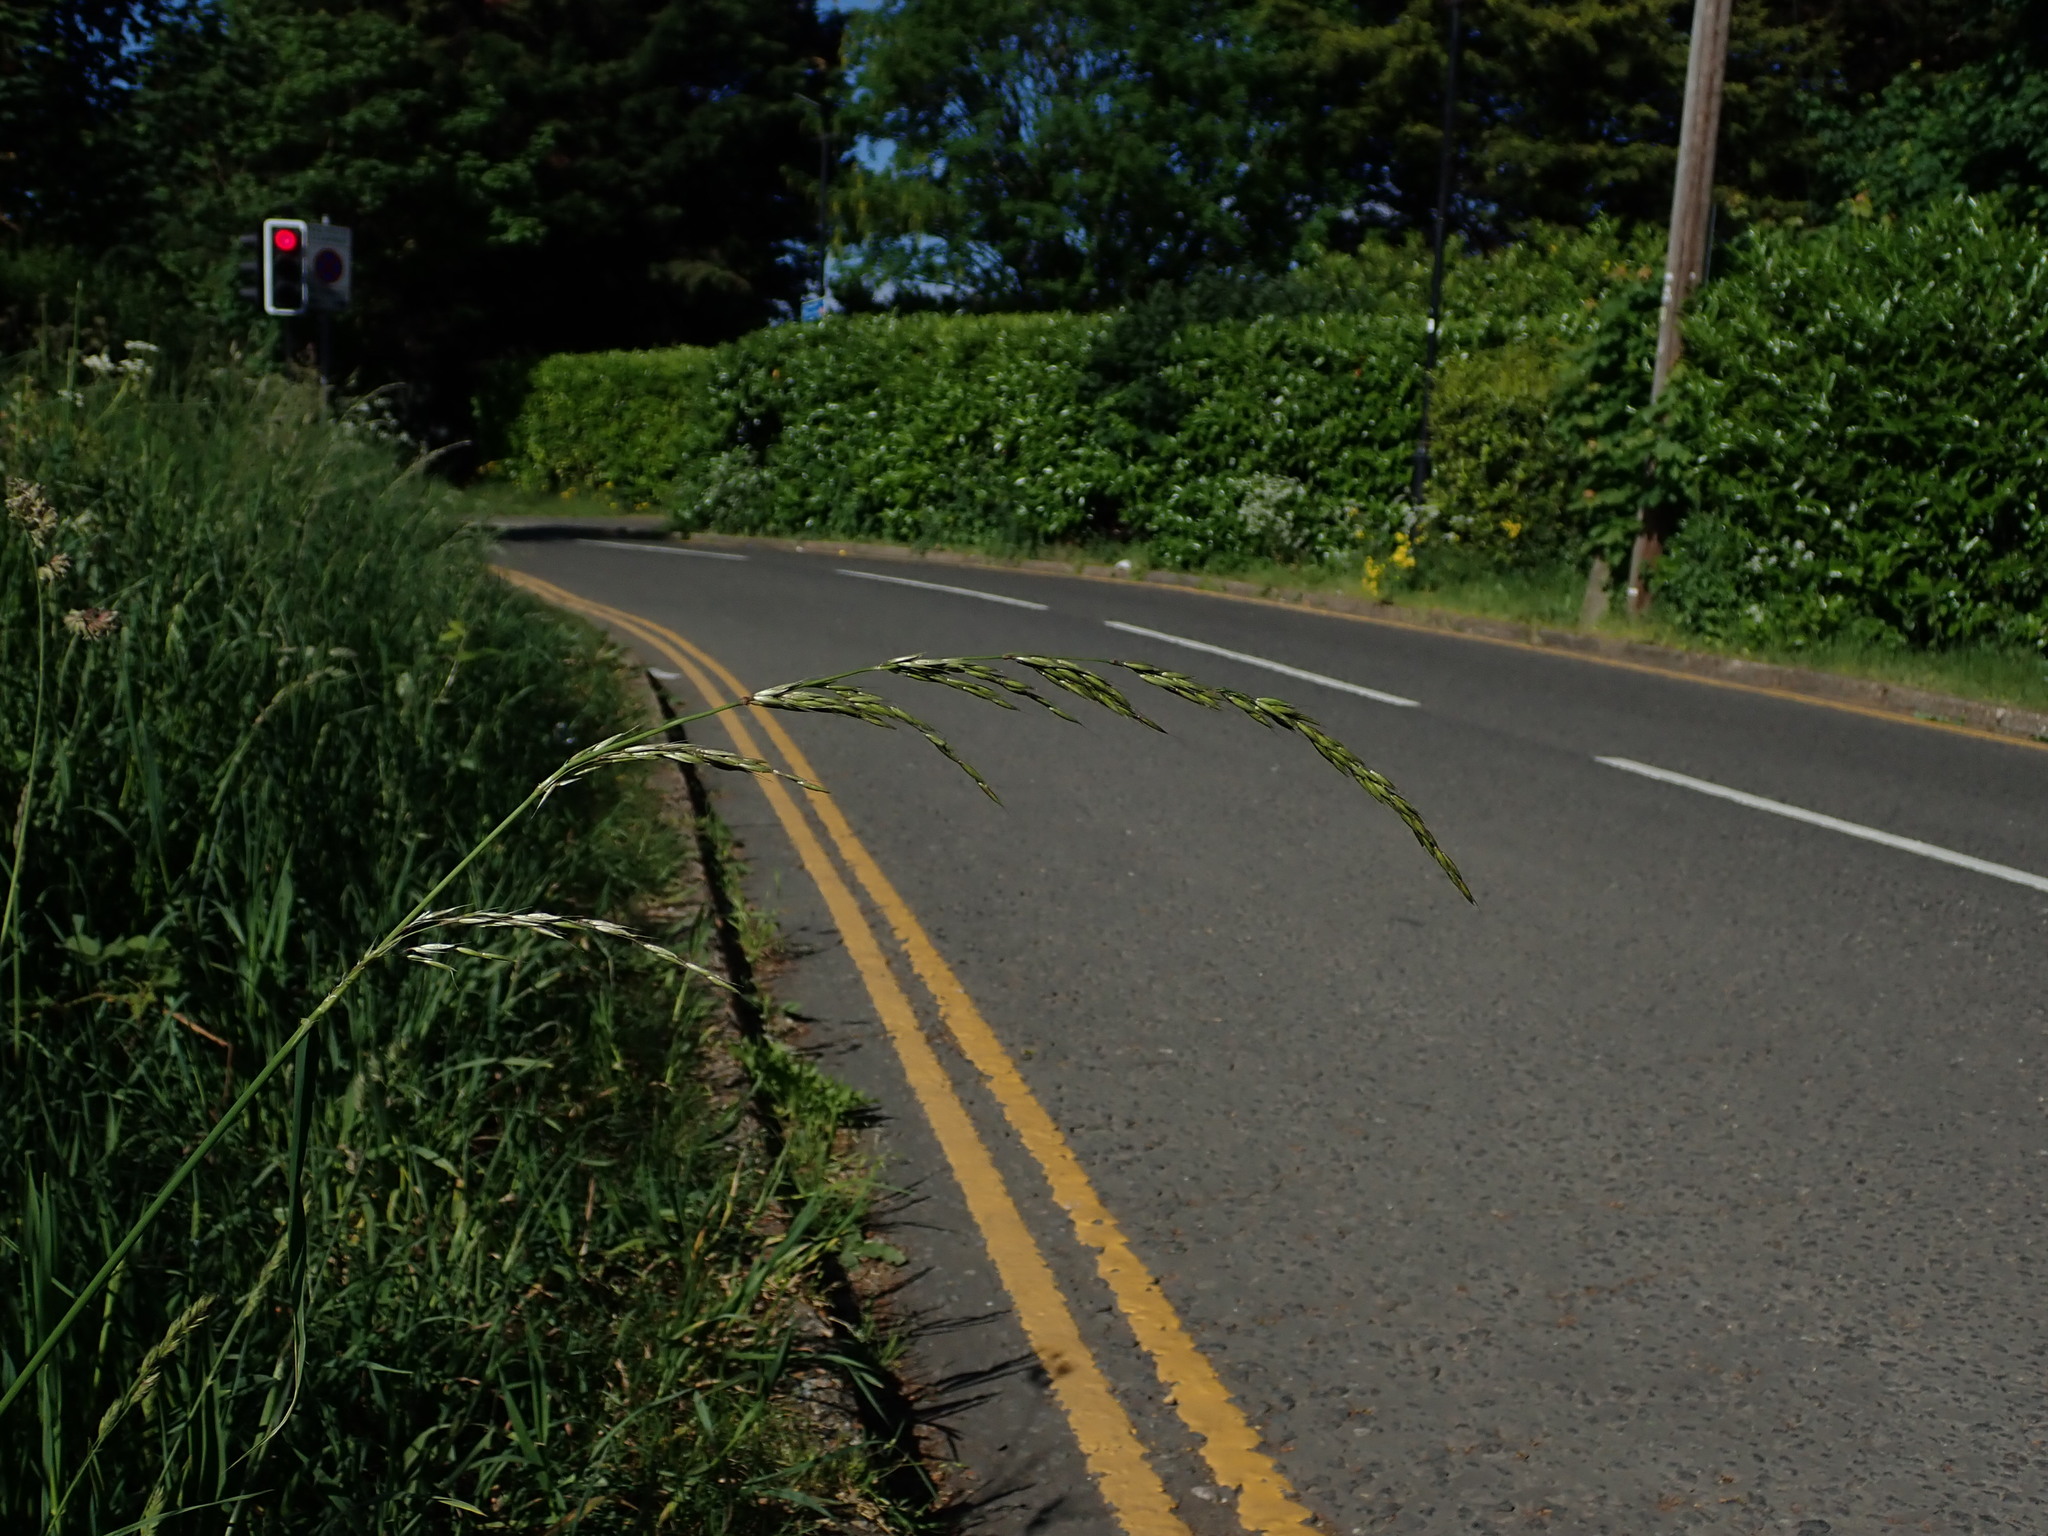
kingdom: Plantae
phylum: Tracheophyta
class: Liliopsida
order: Poales
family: Poaceae
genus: Arrhenatherum
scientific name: Arrhenatherum elatius
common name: Tall oatgrass
